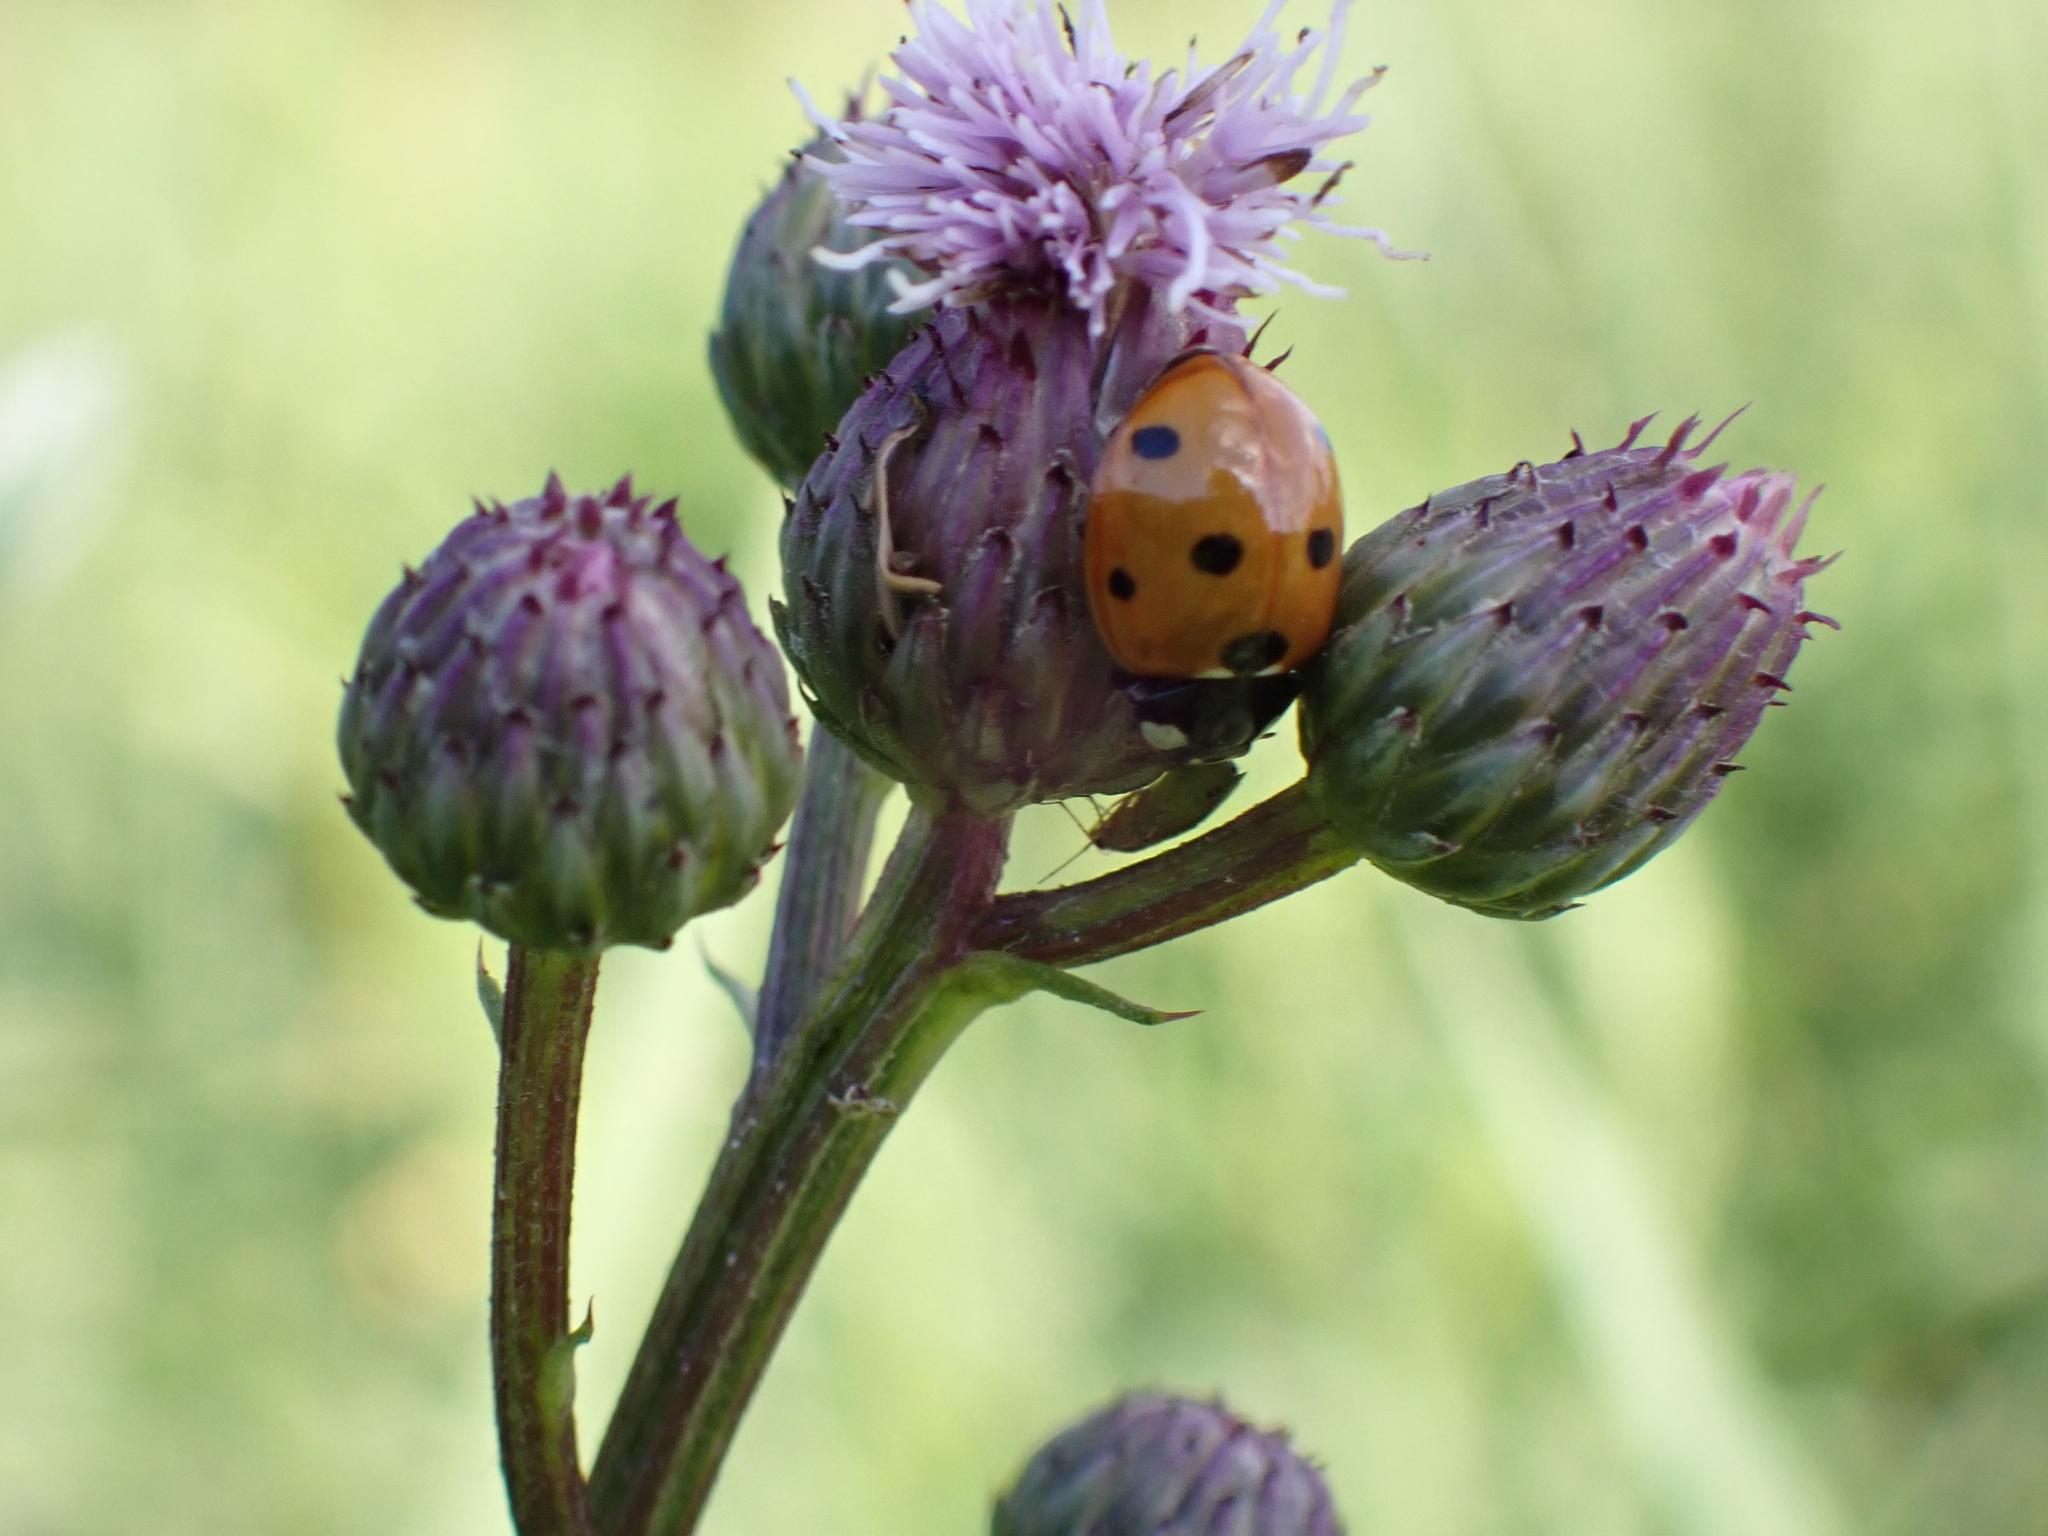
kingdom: Animalia
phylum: Arthropoda
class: Insecta
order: Coleoptera
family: Coccinellidae
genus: Coccinella
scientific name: Coccinella septempunctata
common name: Sevenspotted lady beetle
